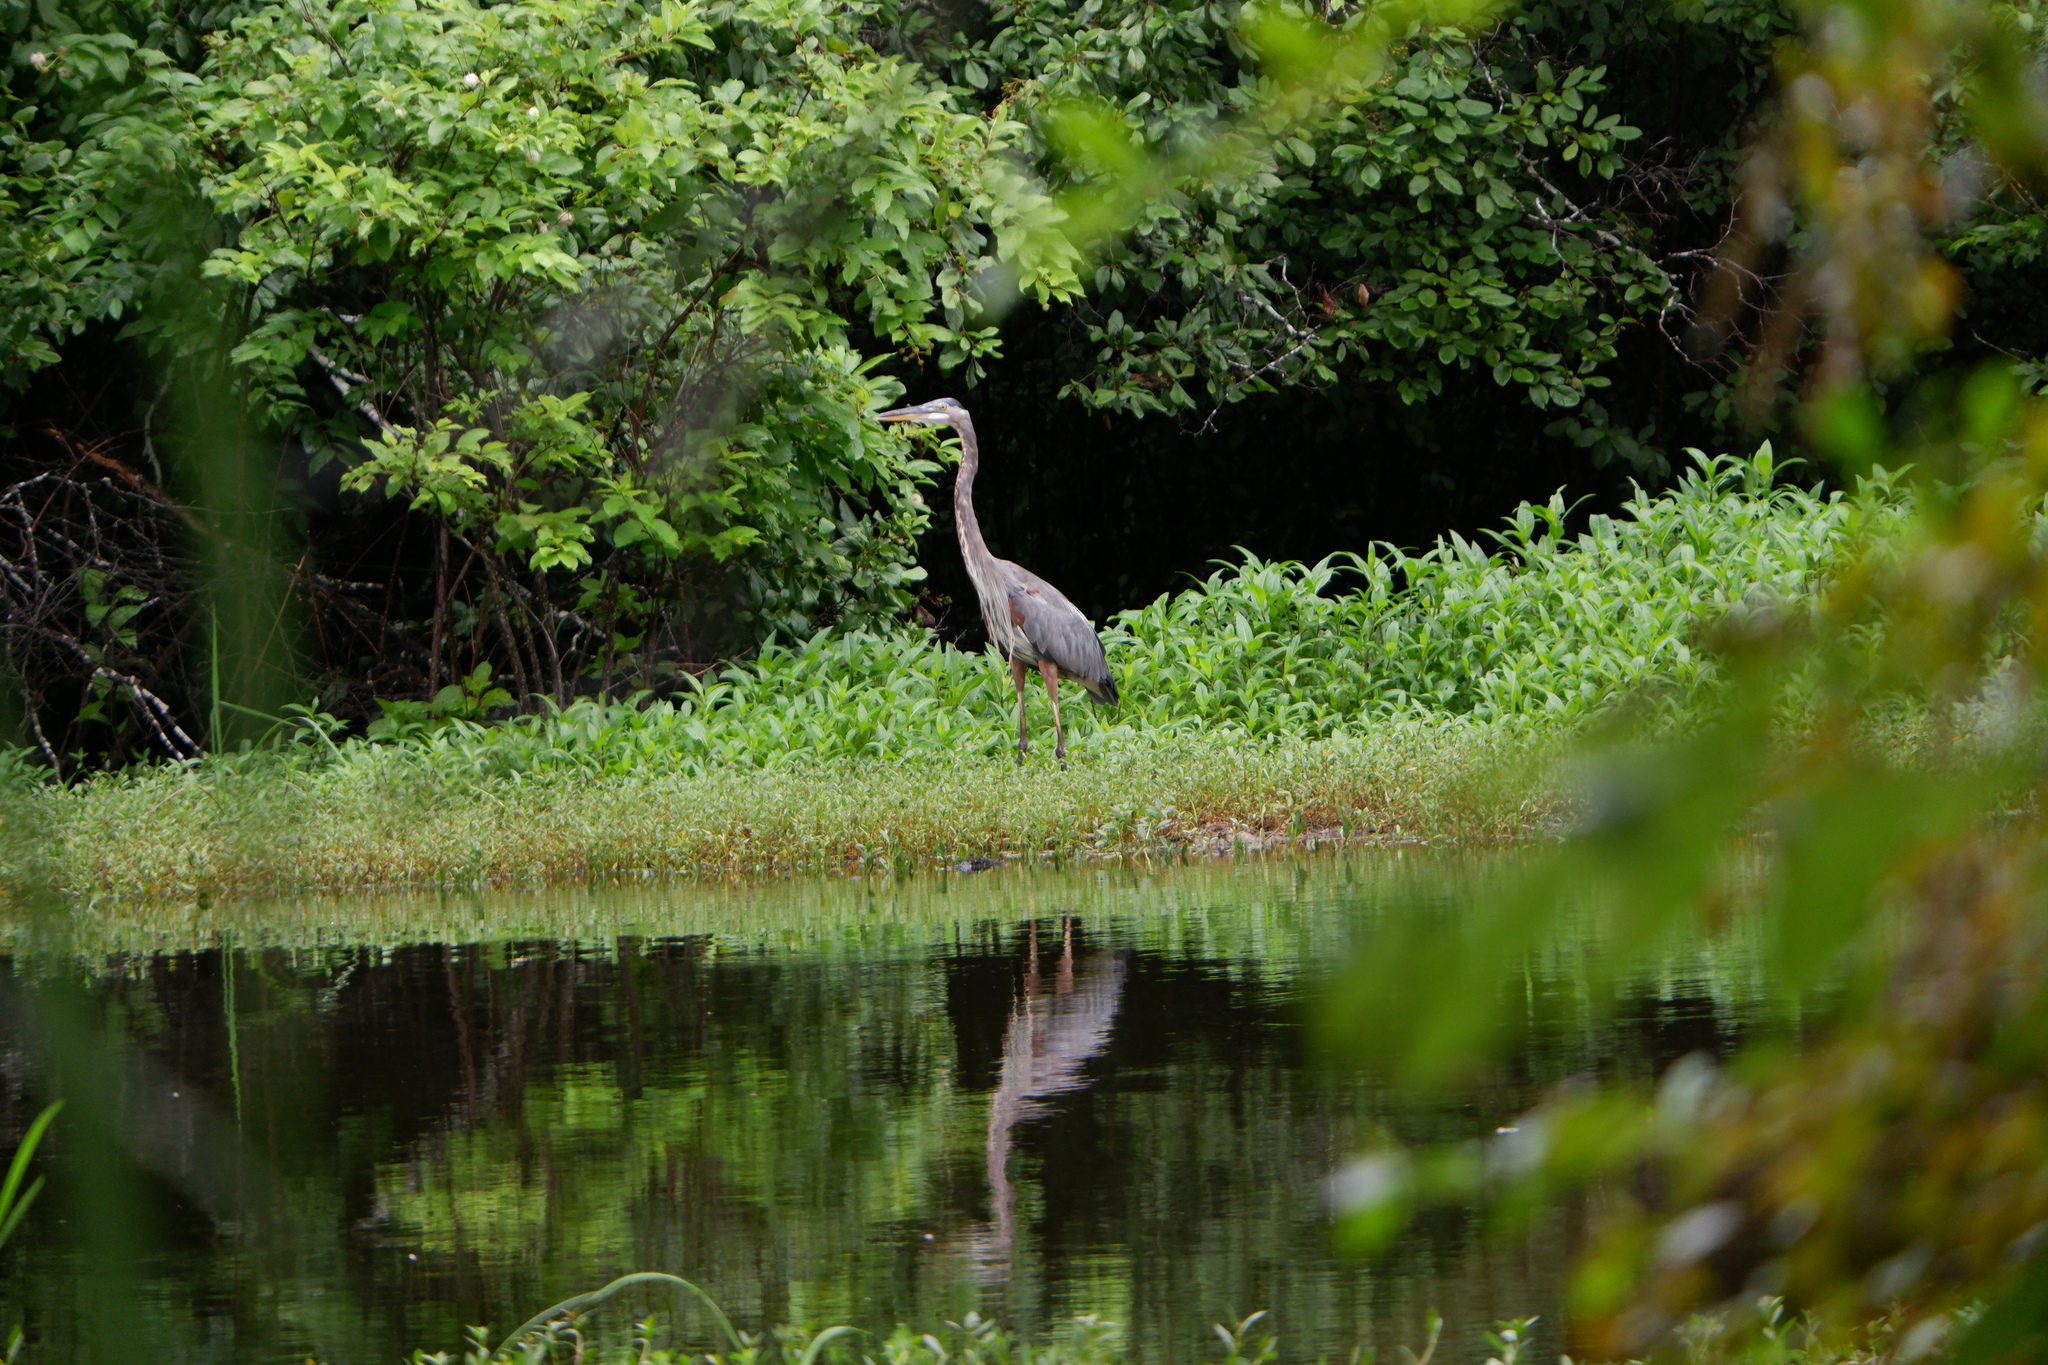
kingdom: Animalia
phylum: Chordata
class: Aves
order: Pelecaniformes
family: Ardeidae
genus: Ardea
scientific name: Ardea herodias
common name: Great blue heron
